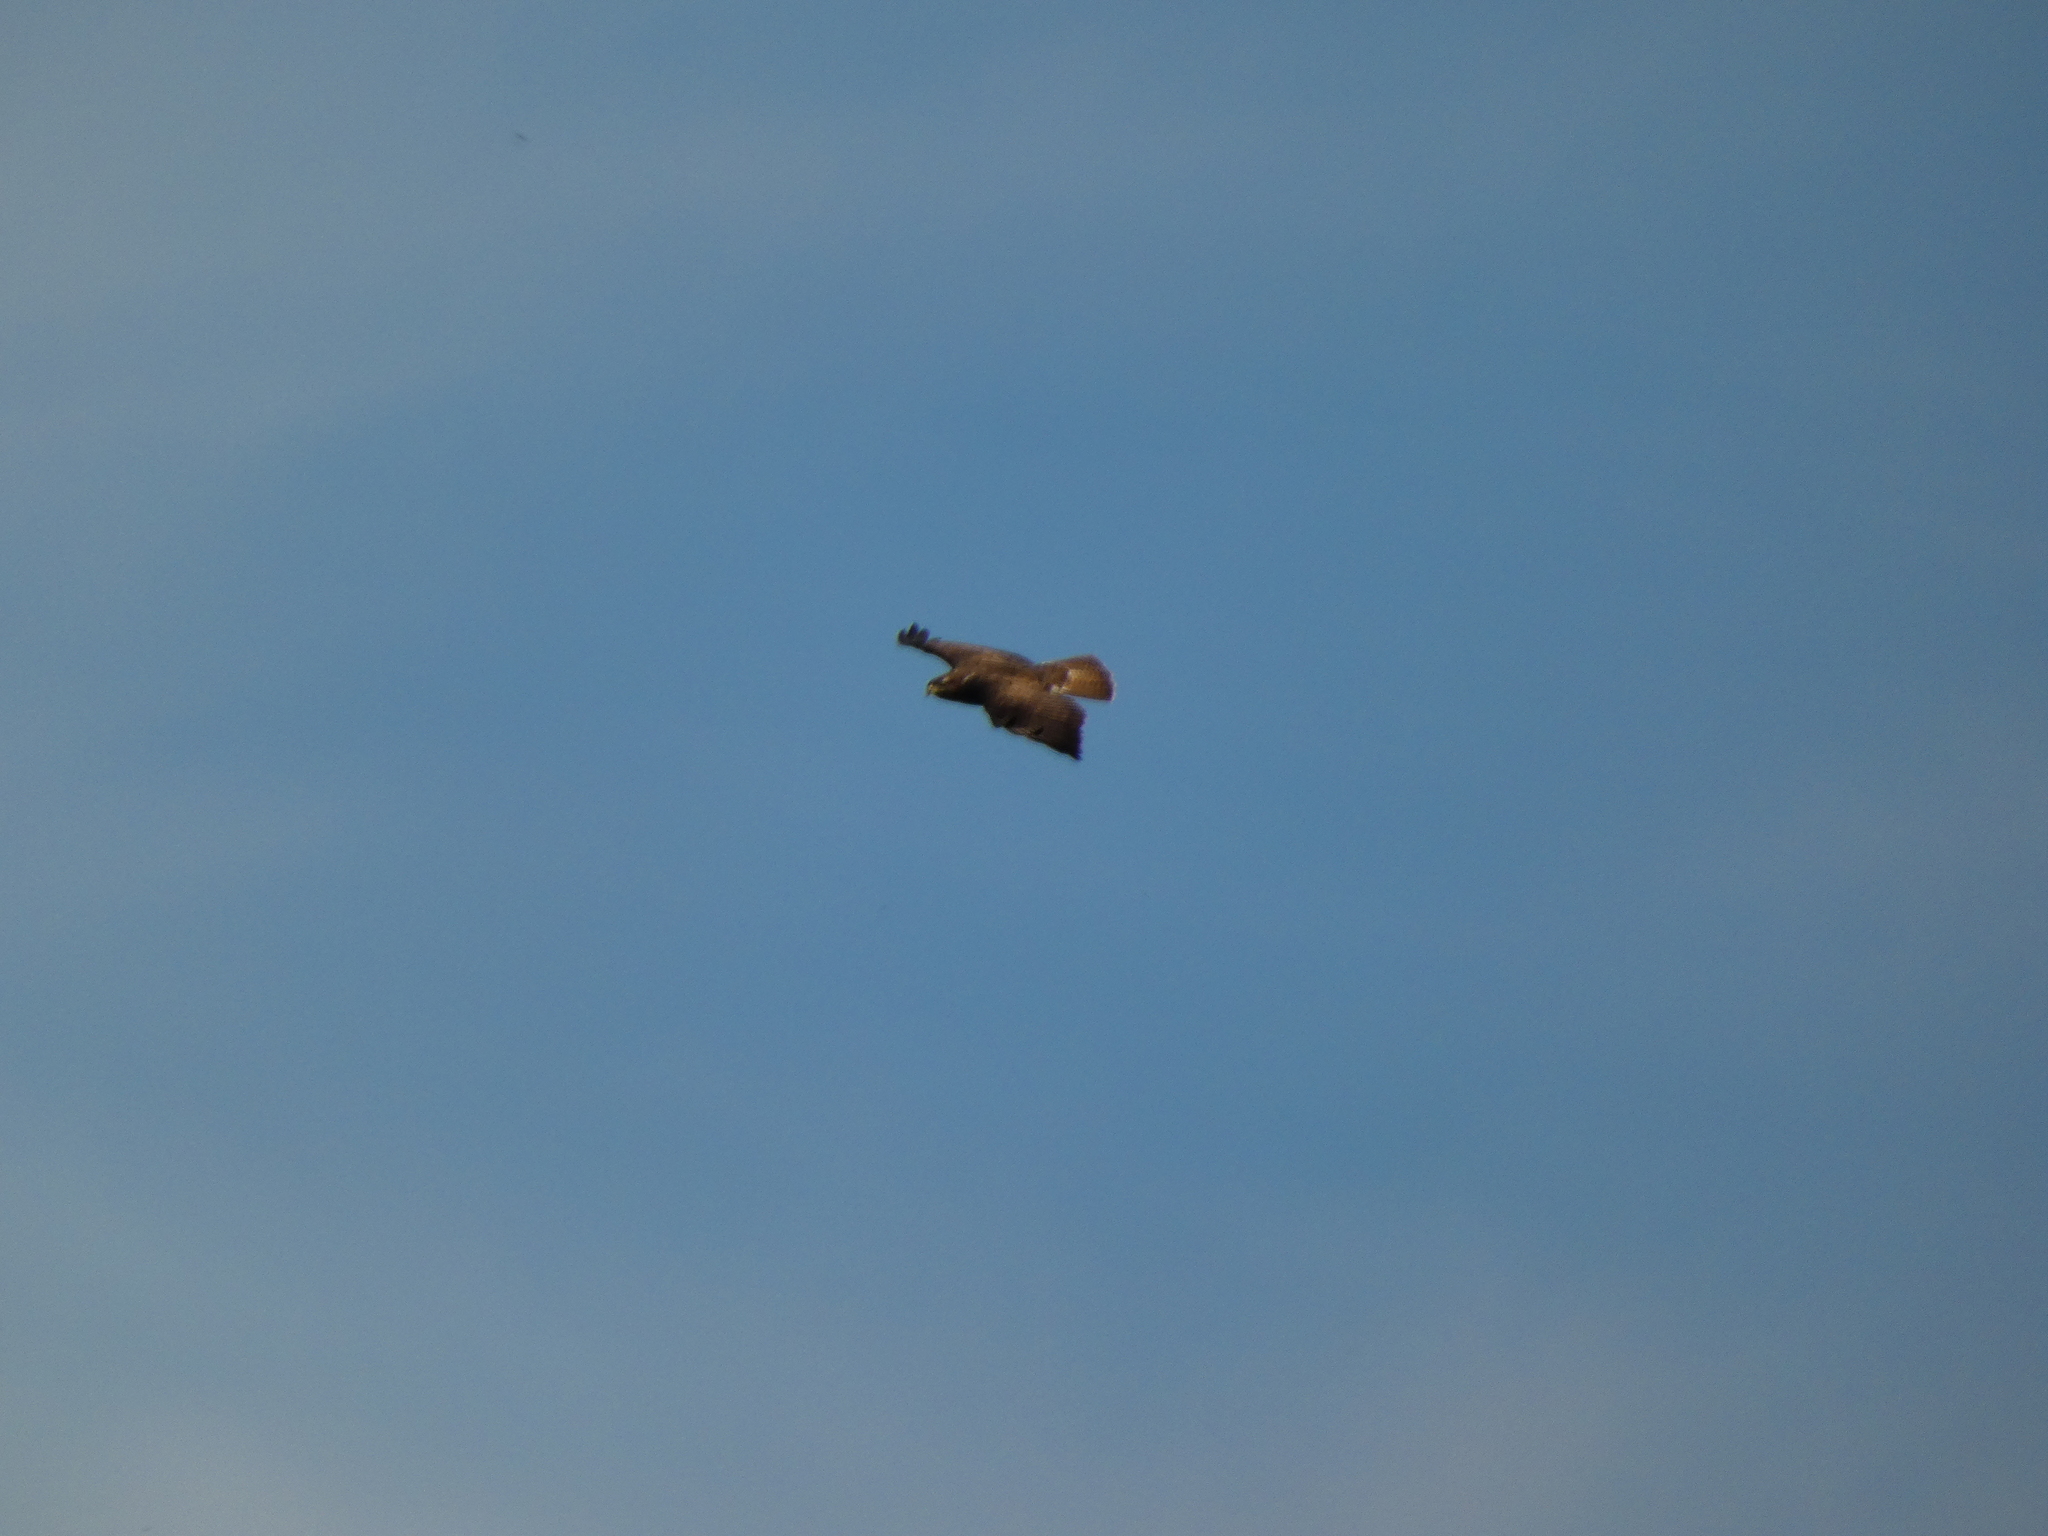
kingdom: Animalia
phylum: Chordata
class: Aves
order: Accipitriformes
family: Accipitridae
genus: Buteo
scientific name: Buteo buteo
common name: Common buzzard
